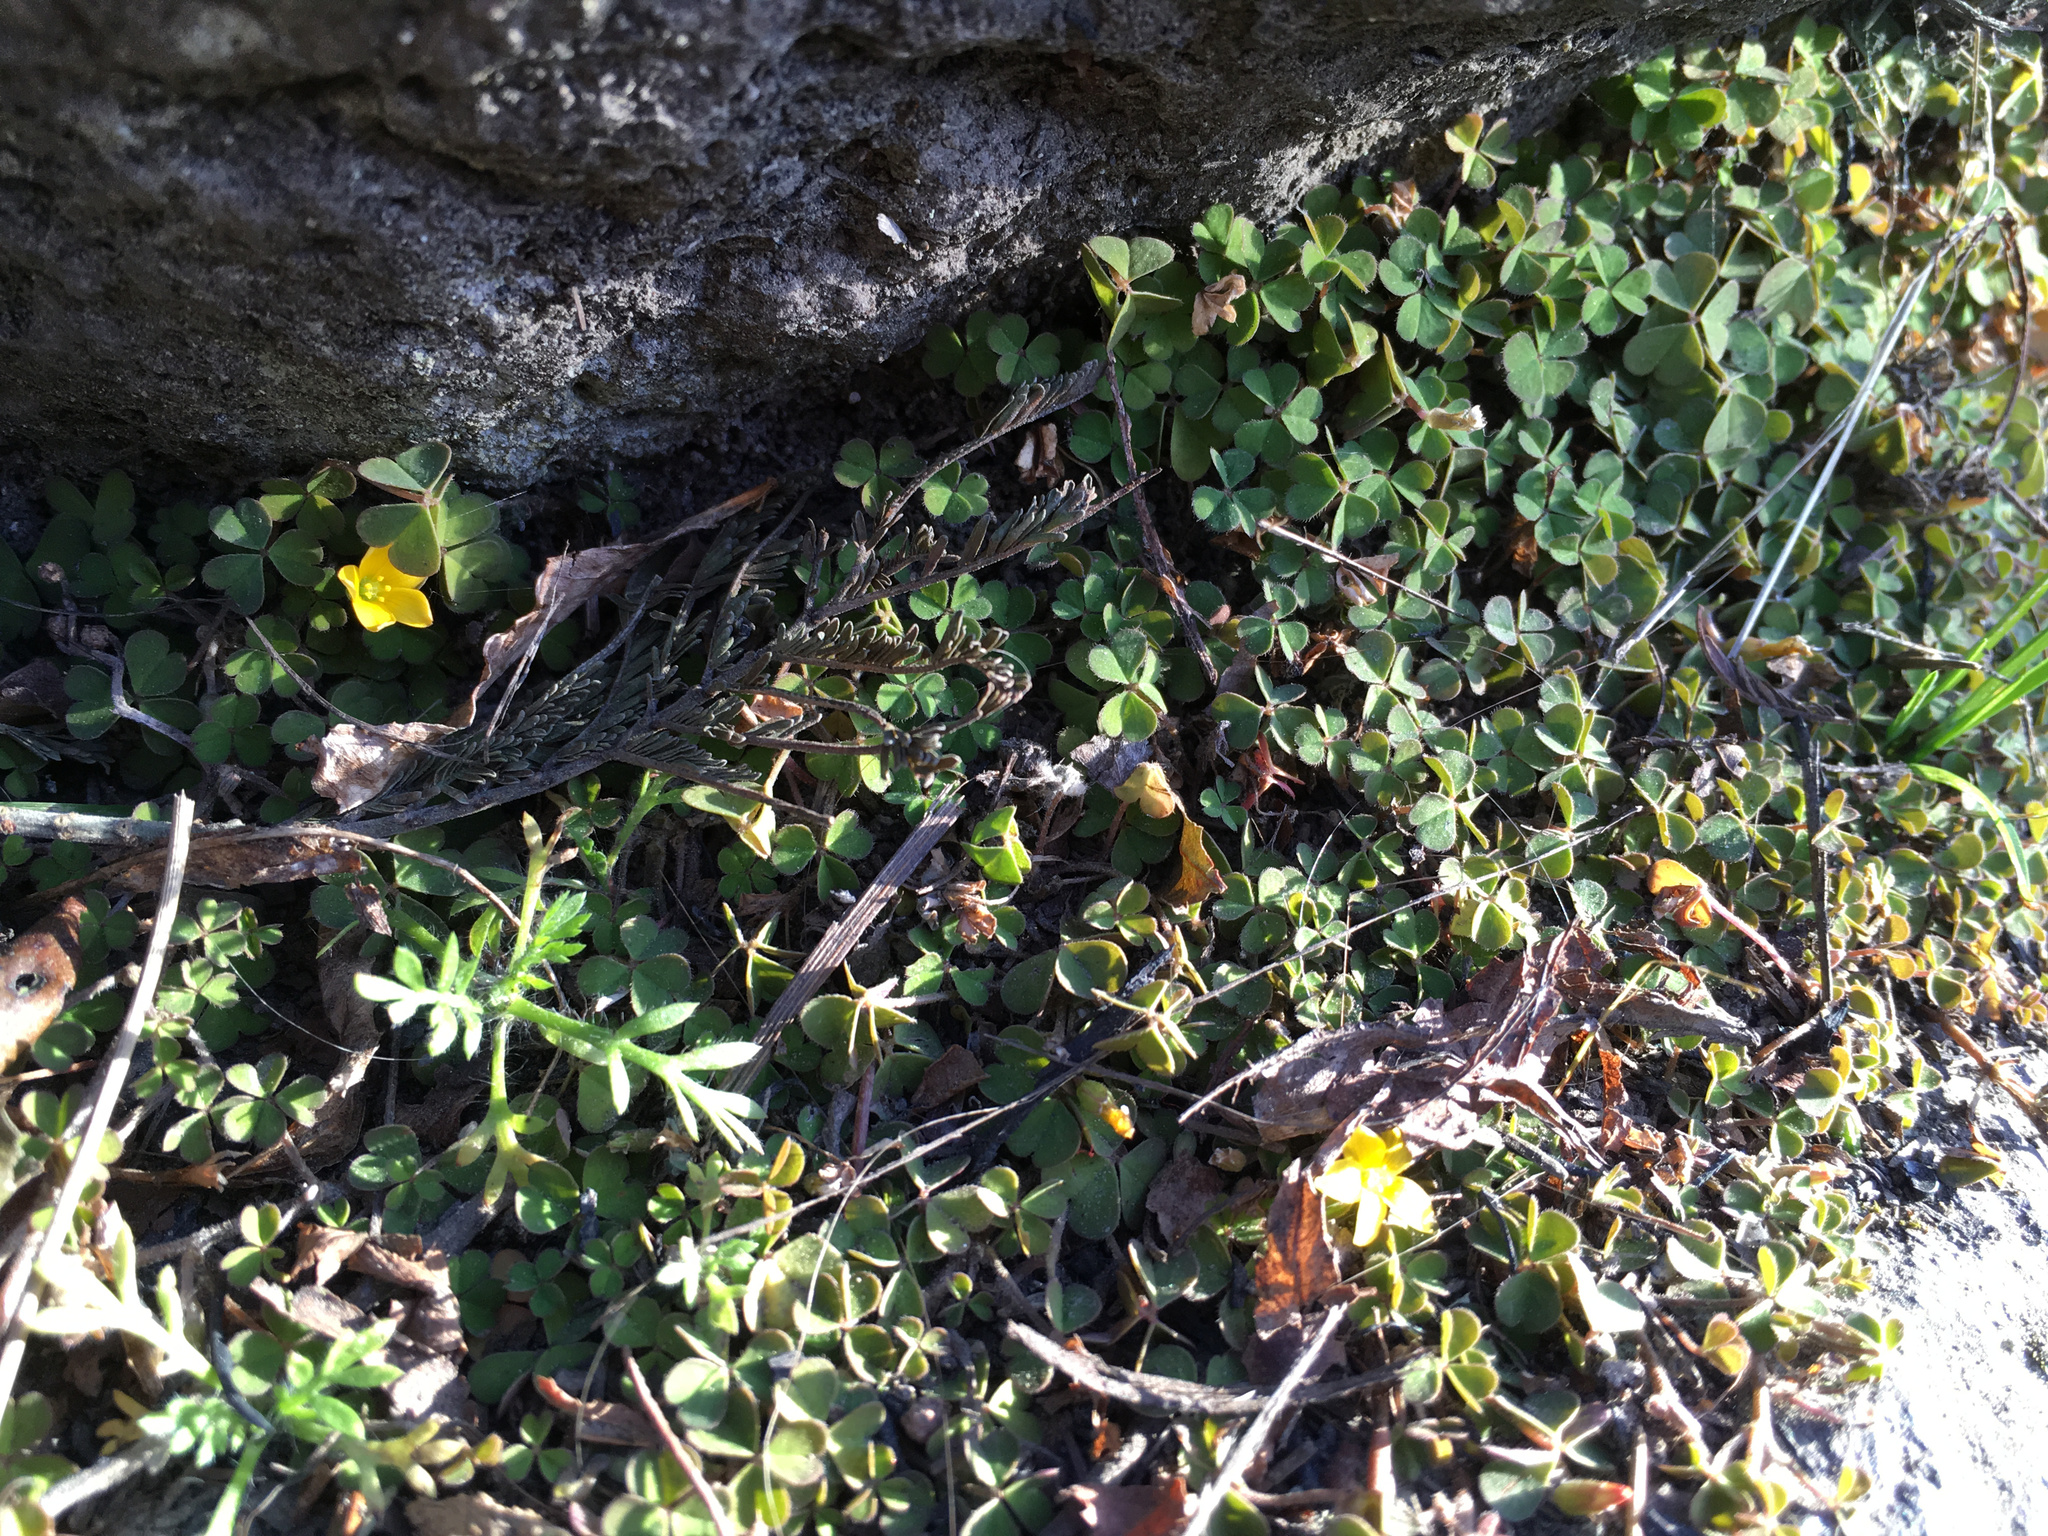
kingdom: Plantae
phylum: Tracheophyta
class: Magnoliopsida
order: Oxalidales
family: Oxalidaceae
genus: Oxalis
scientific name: Oxalis exilis
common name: Least yellow-sorrel
